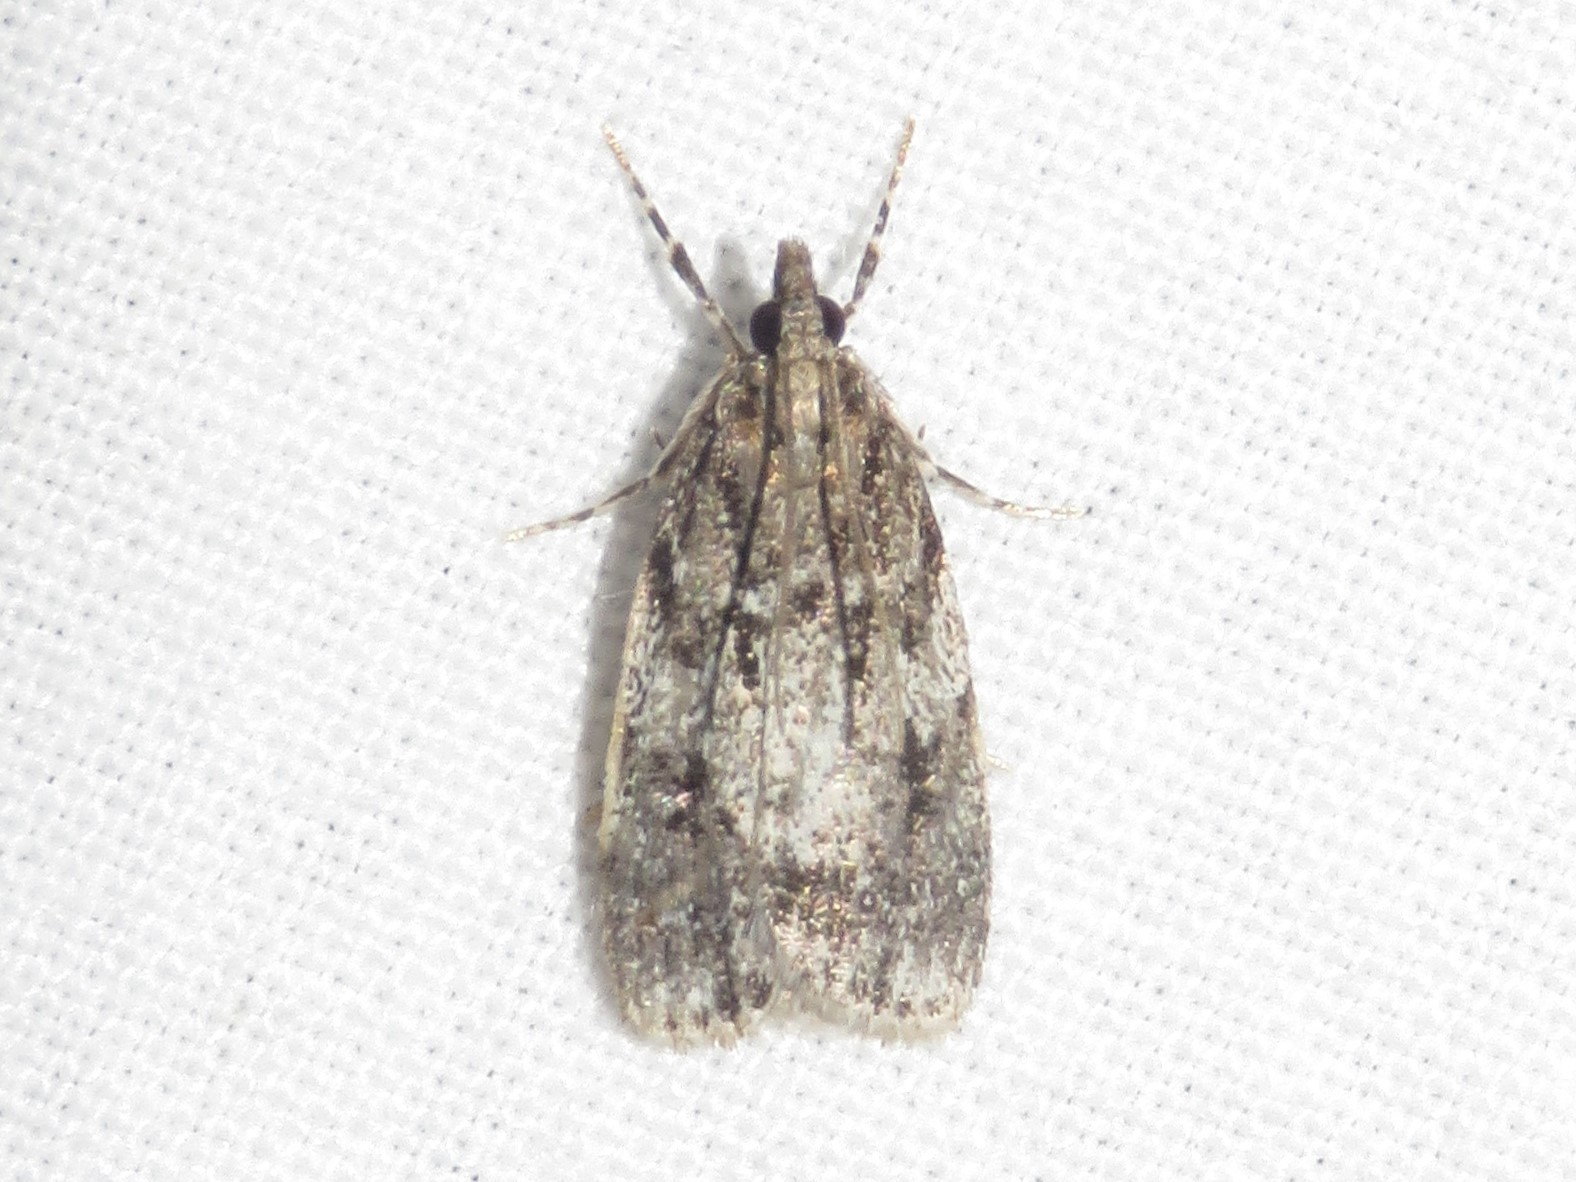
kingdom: Animalia
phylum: Arthropoda
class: Insecta
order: Lepidoptera
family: Crambidae
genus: Scoparia
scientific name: Scoparia basalis
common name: Many-spotted scoparia moth
